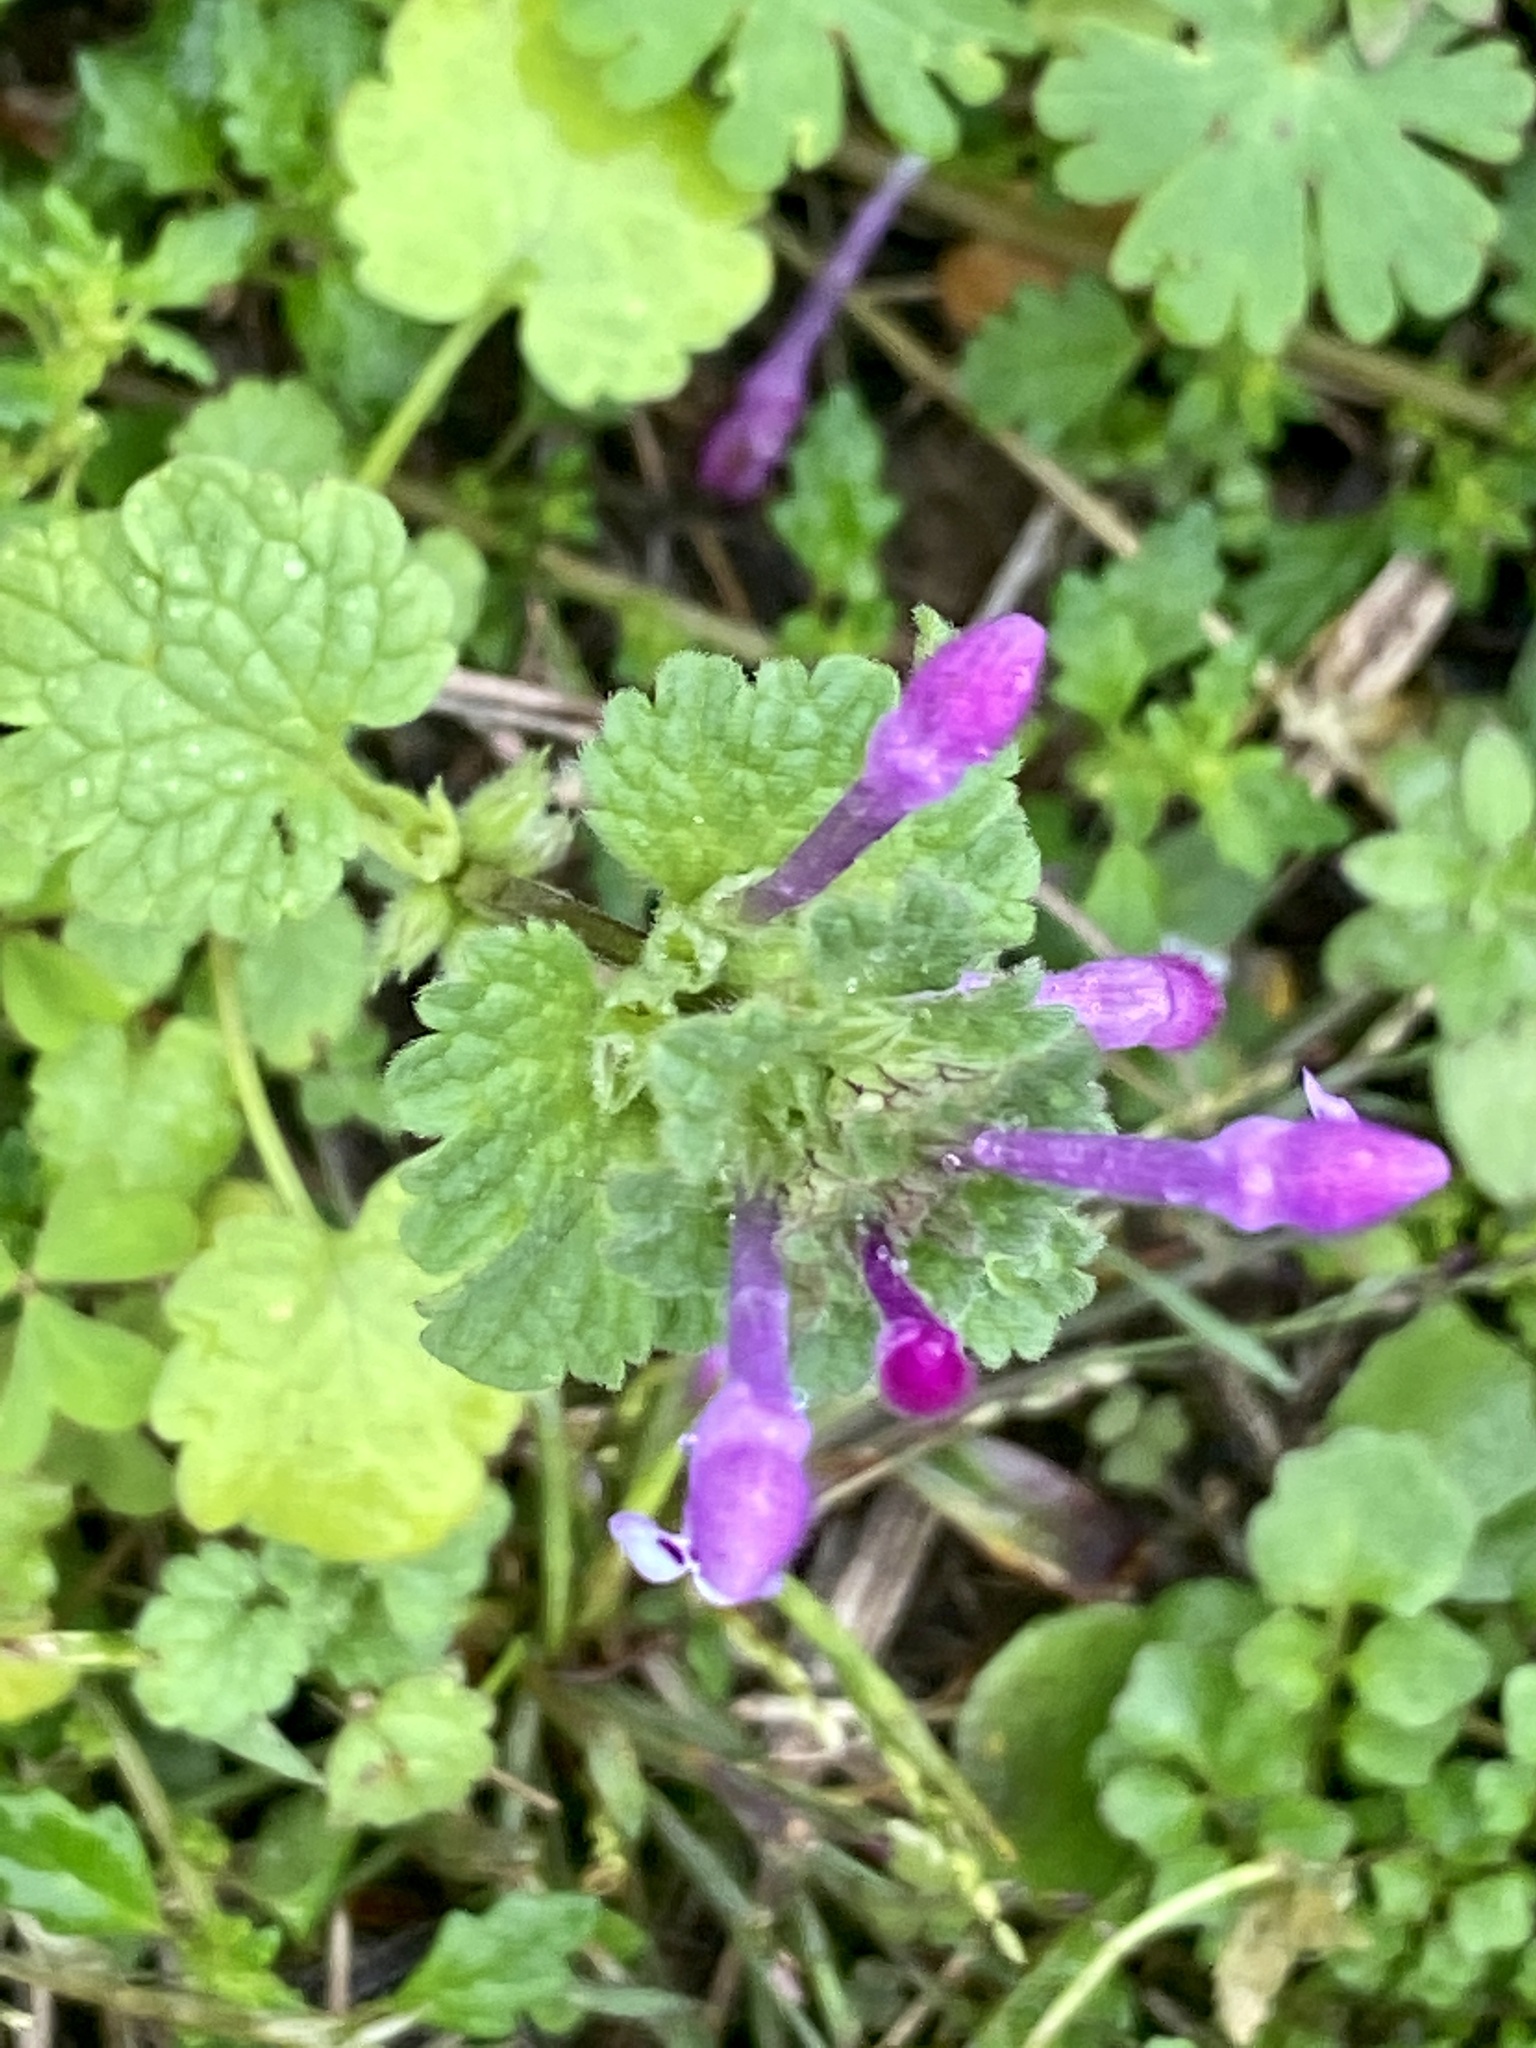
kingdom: Plantae
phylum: Tracheophyta
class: Magnoliopsida
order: Lamiales
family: Lamiaceae
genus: Lamium
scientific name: Lamium amplexicaule
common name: Henbit dead-nettle
